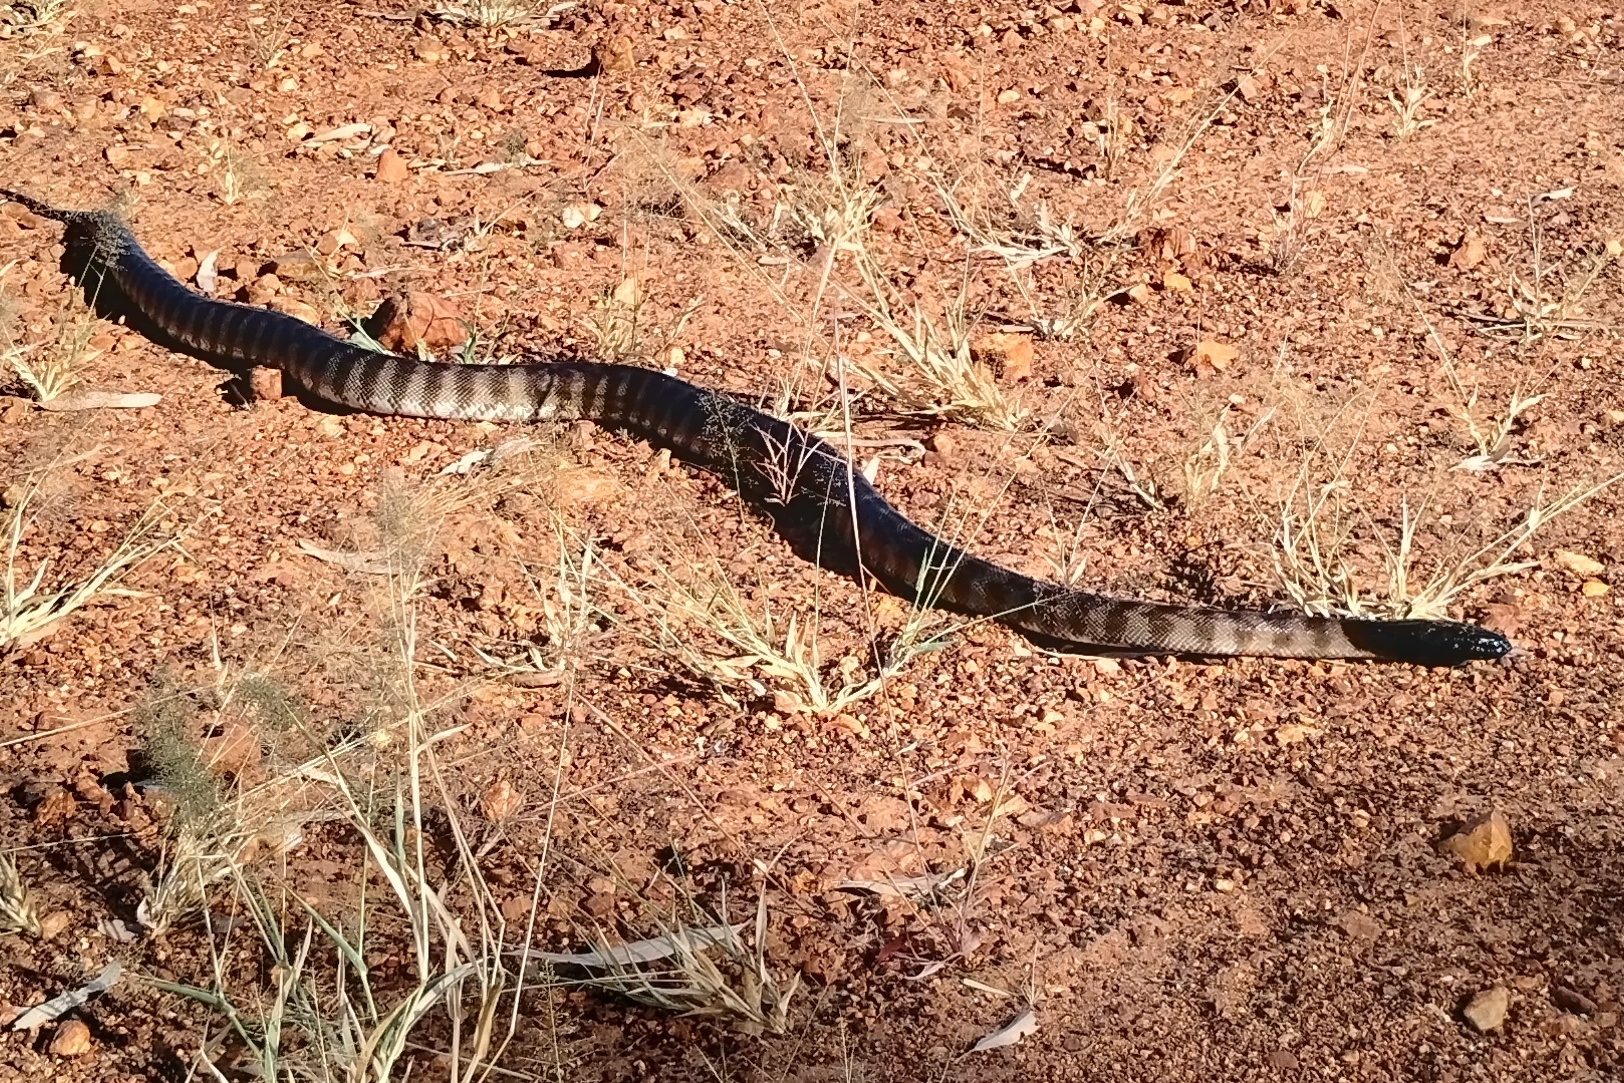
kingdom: Animalia
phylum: Chordata
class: Squamata
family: Pythonidae
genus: Aspidites
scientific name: Aspidites melanocephalus
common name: Black-headed python
